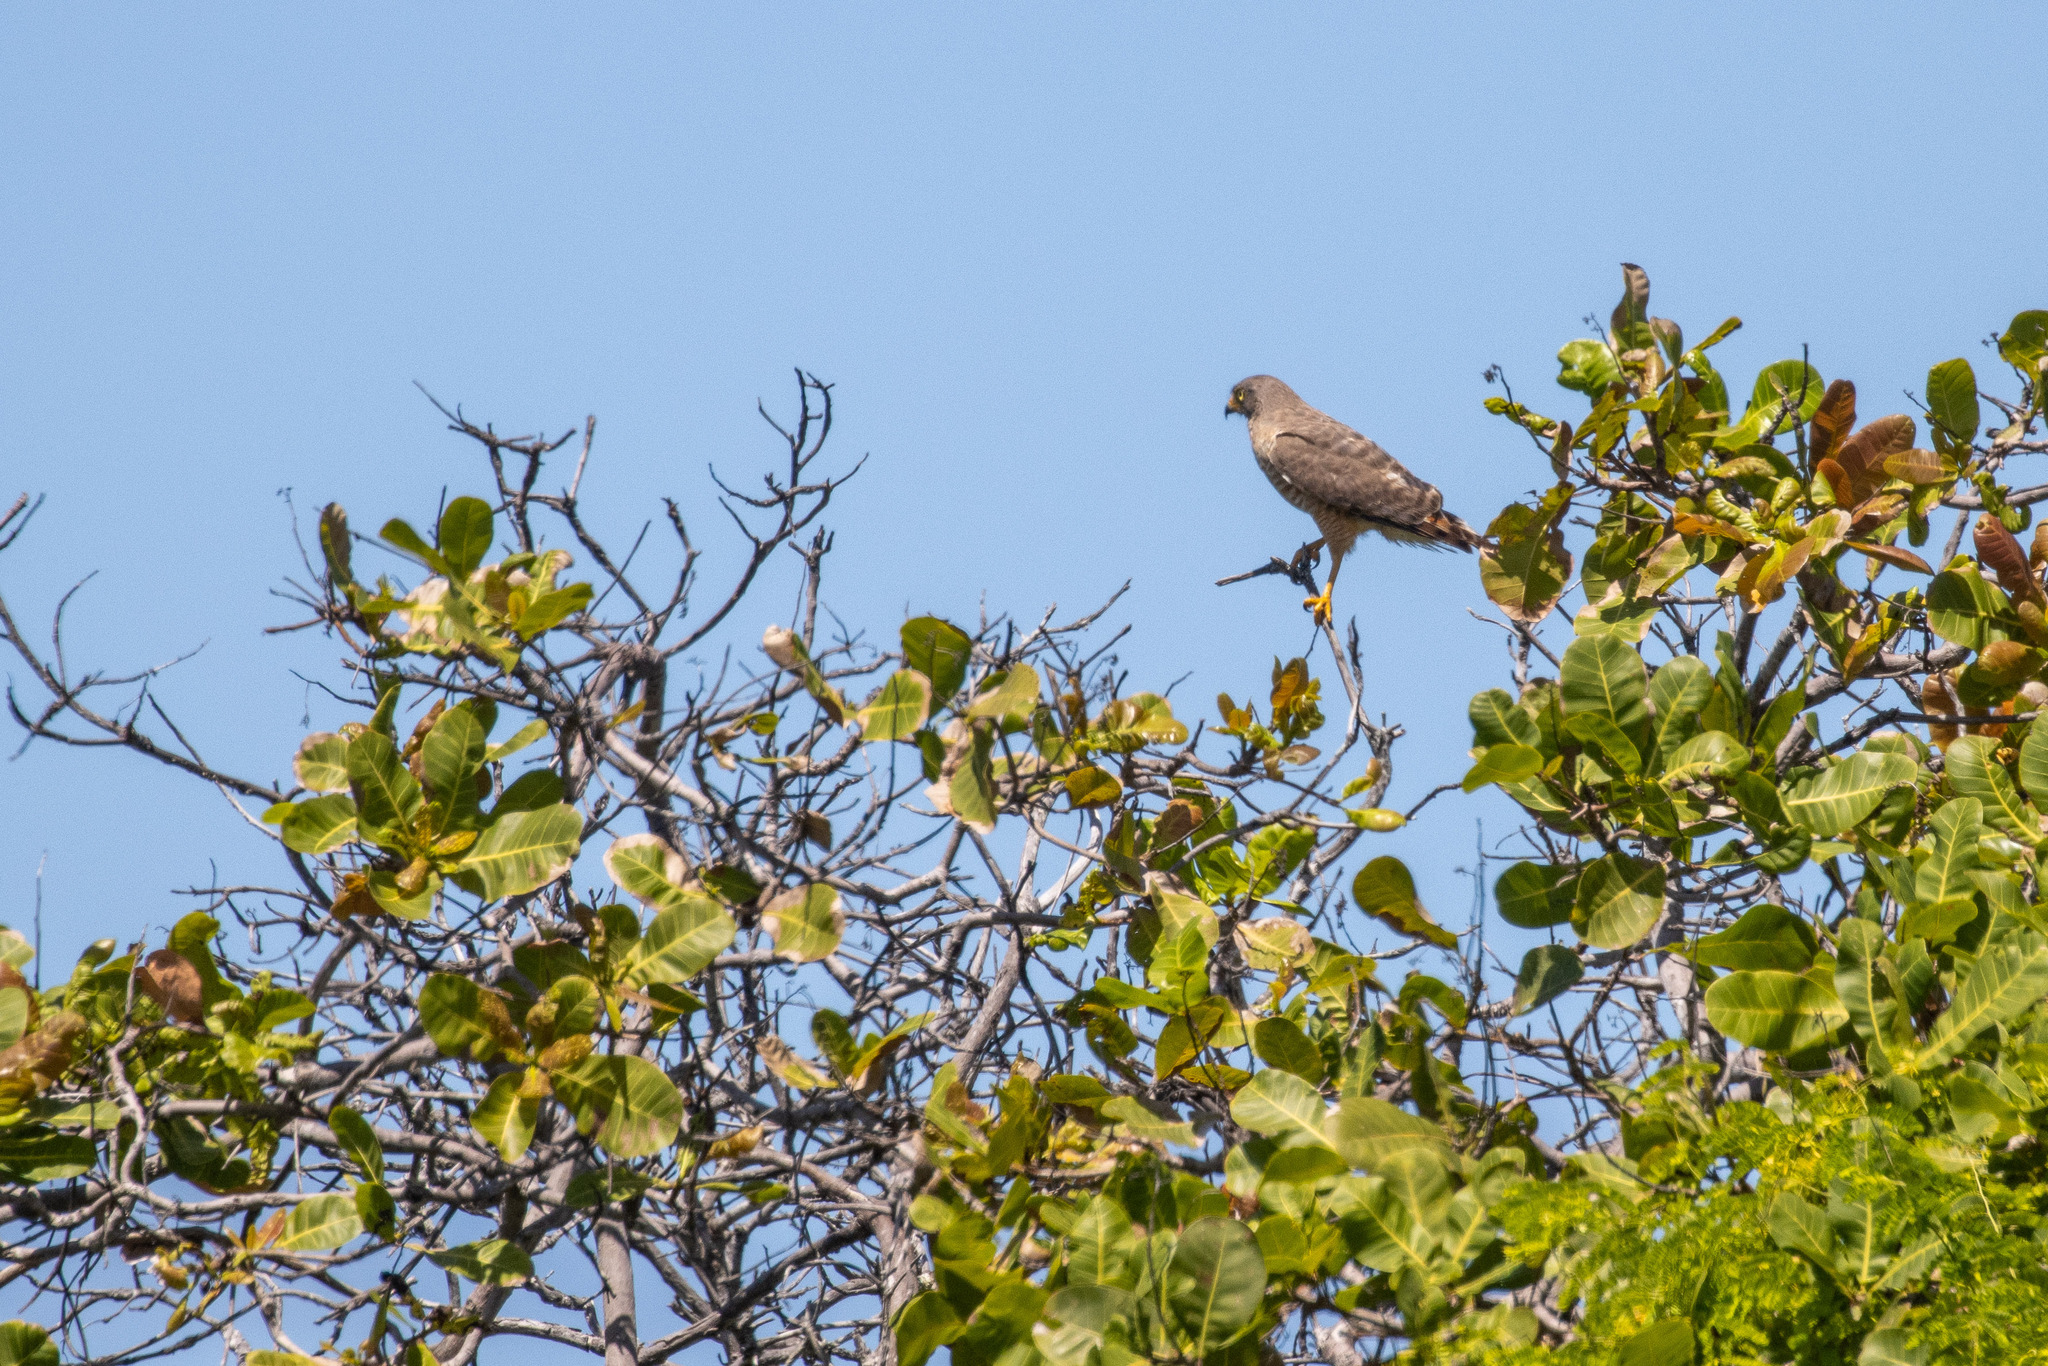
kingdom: Animalia
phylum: Chordata
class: Aves
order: Accipitriformes
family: Accipitridae
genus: Rupornis
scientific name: Rupornis magnirostris
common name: Roadside hawk
